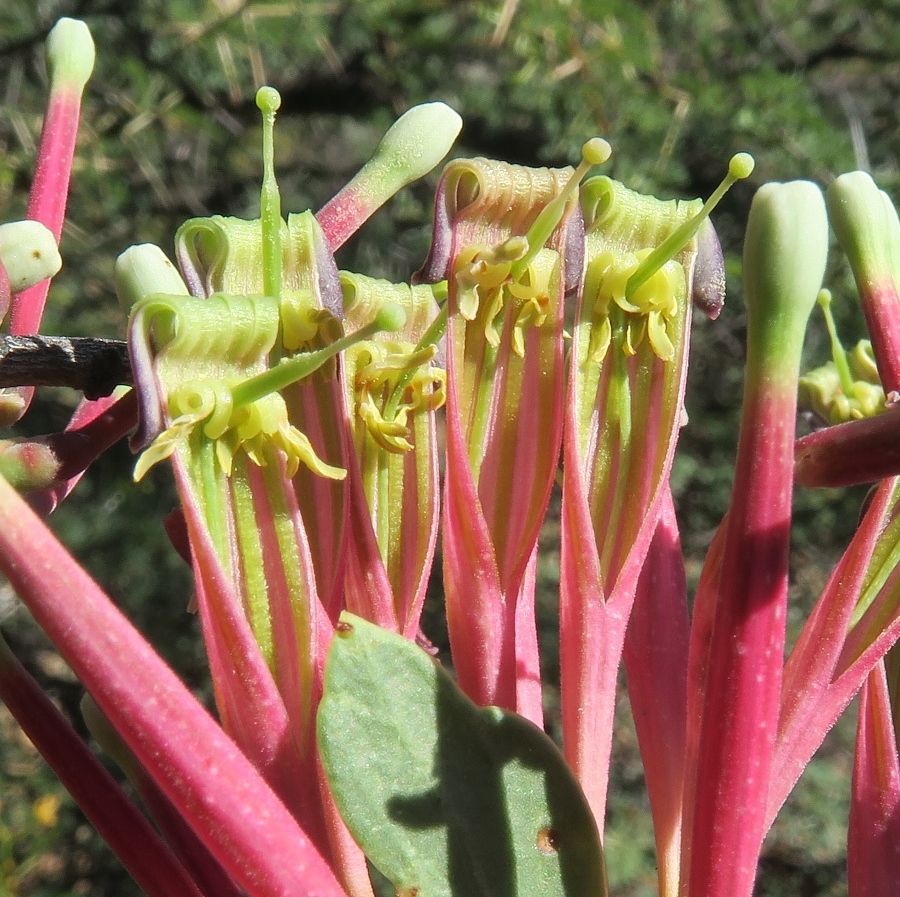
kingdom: Plantae
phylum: Tracheophyta
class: Magnoliopsida
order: Santalales
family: Loranthaceae
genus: Tapinanthus
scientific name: Tapinanthus oleifolius
